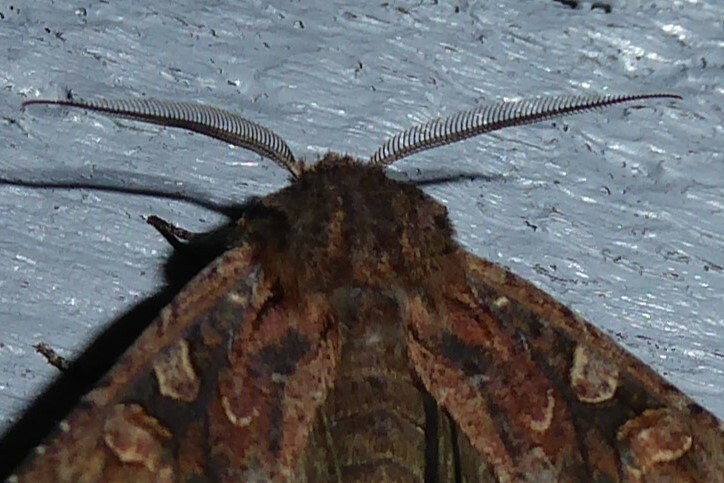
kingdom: Animalia
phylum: Arthropoda
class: Insecta
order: Lepidoptera
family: Noctuidae
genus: Ichneutica
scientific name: Ichneutica skelloni
